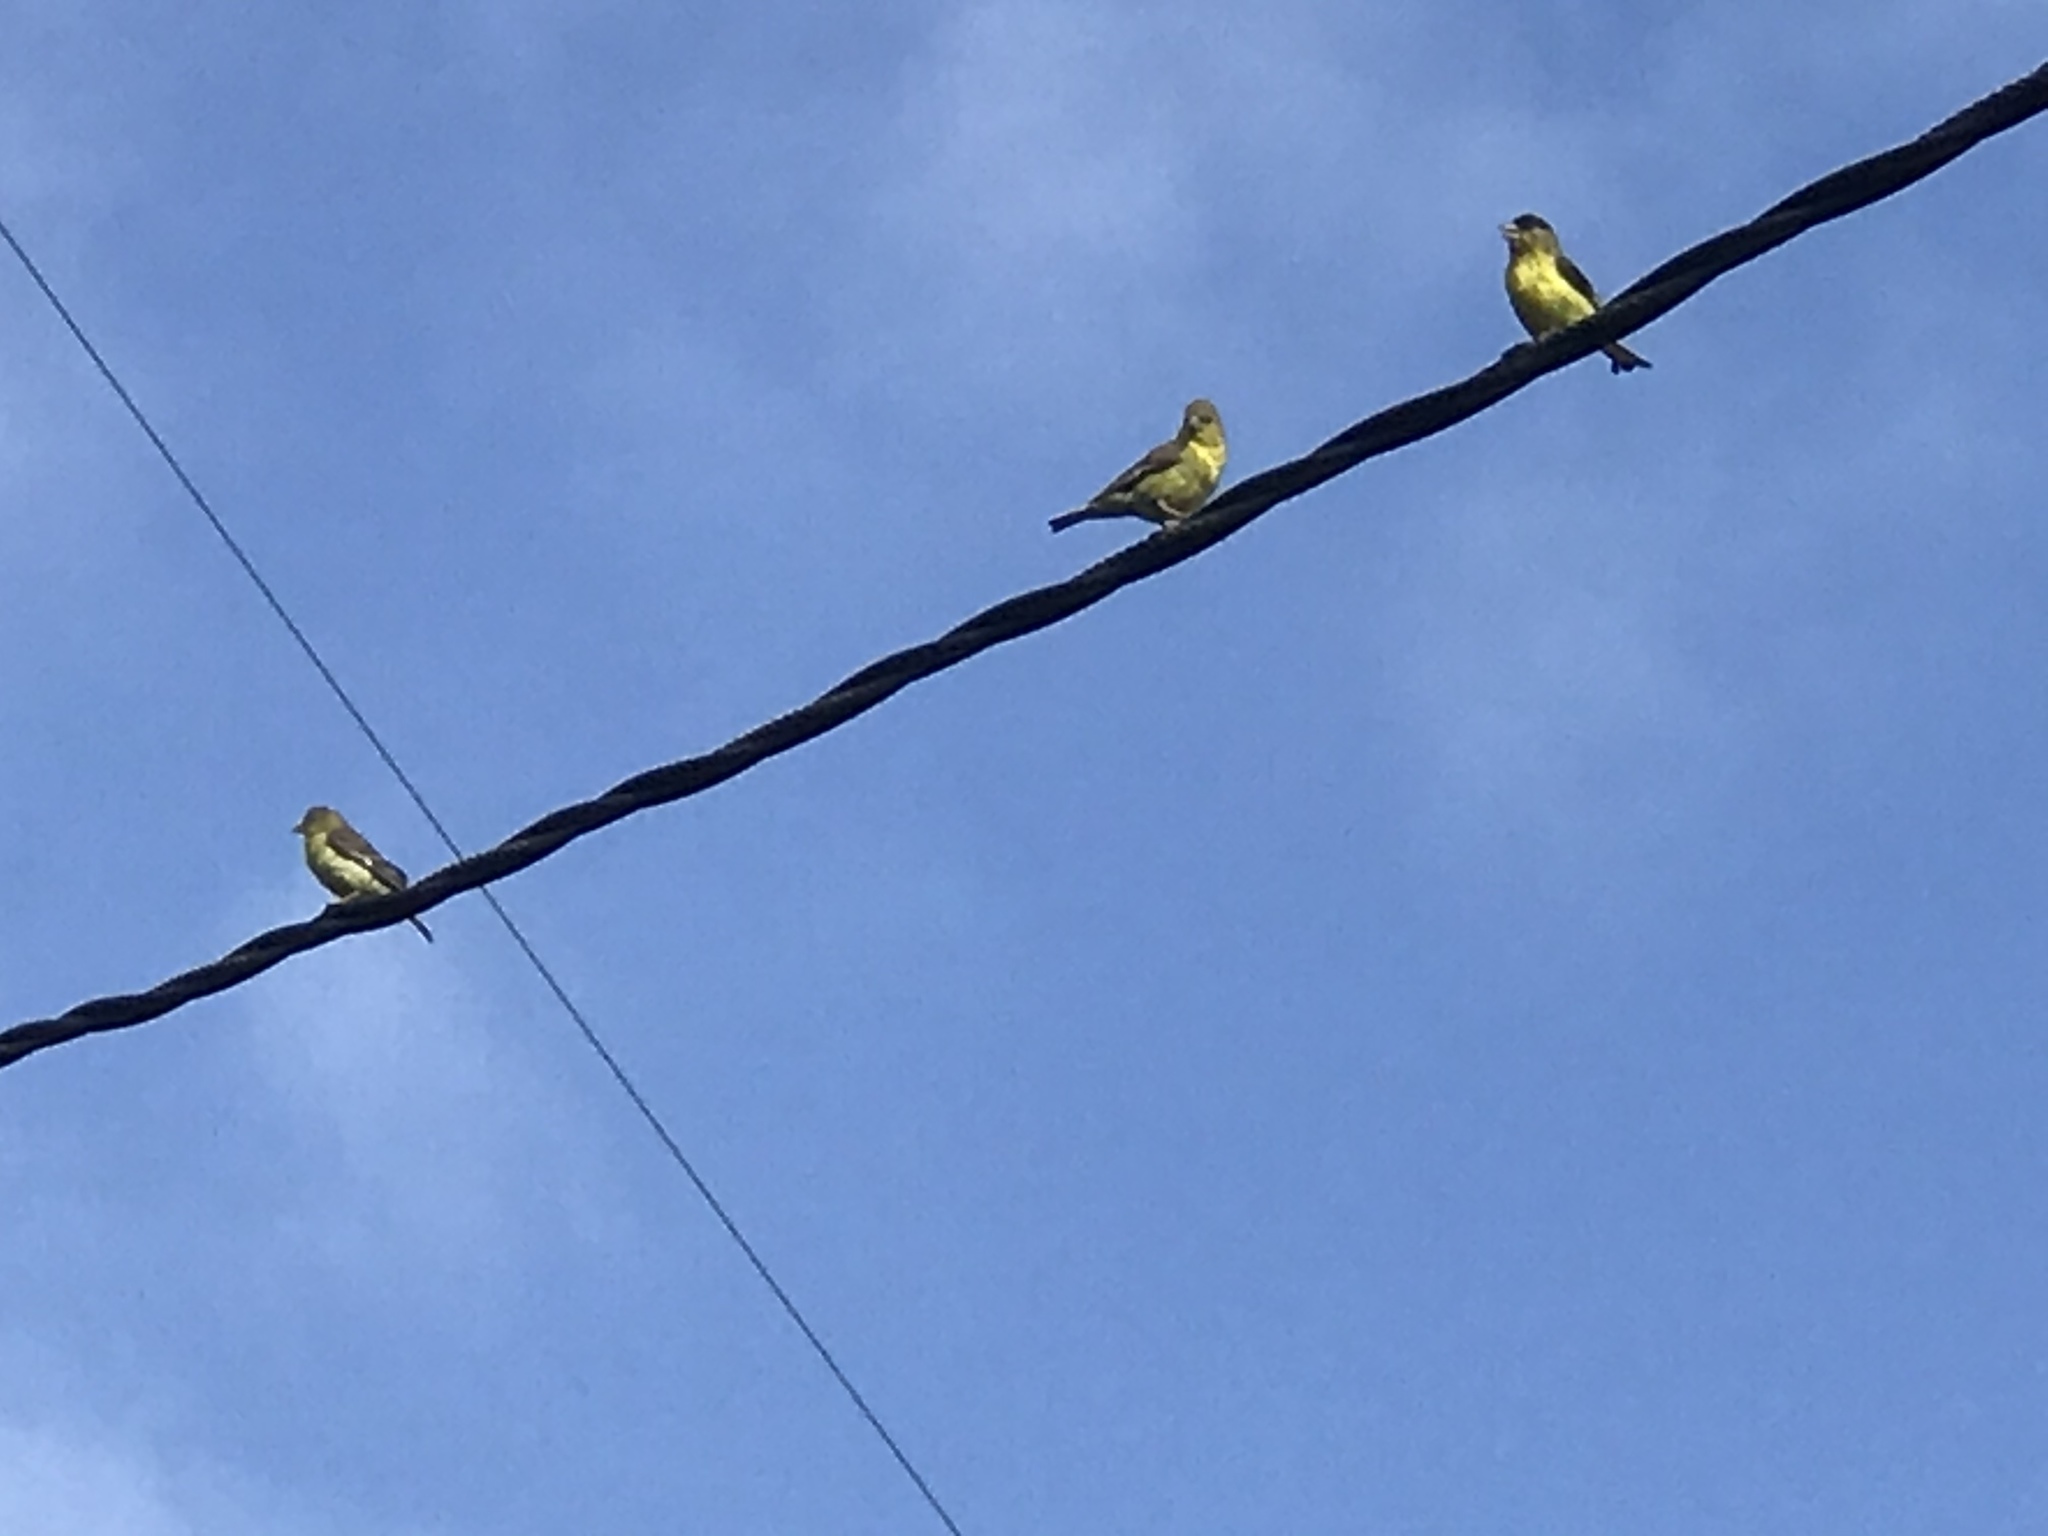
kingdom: Animalia
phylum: Chordata
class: Aves
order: Passeriformes
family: Fringillidae
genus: Spinus
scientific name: Spinus psaltria
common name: Lesser goldfinch
